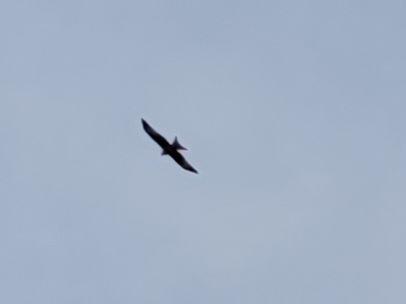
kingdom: Animalia
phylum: Chordata
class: Aves
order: Accipitriformes
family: Accipitridae
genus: Milvus
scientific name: Milvus milvus
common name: Red kite
